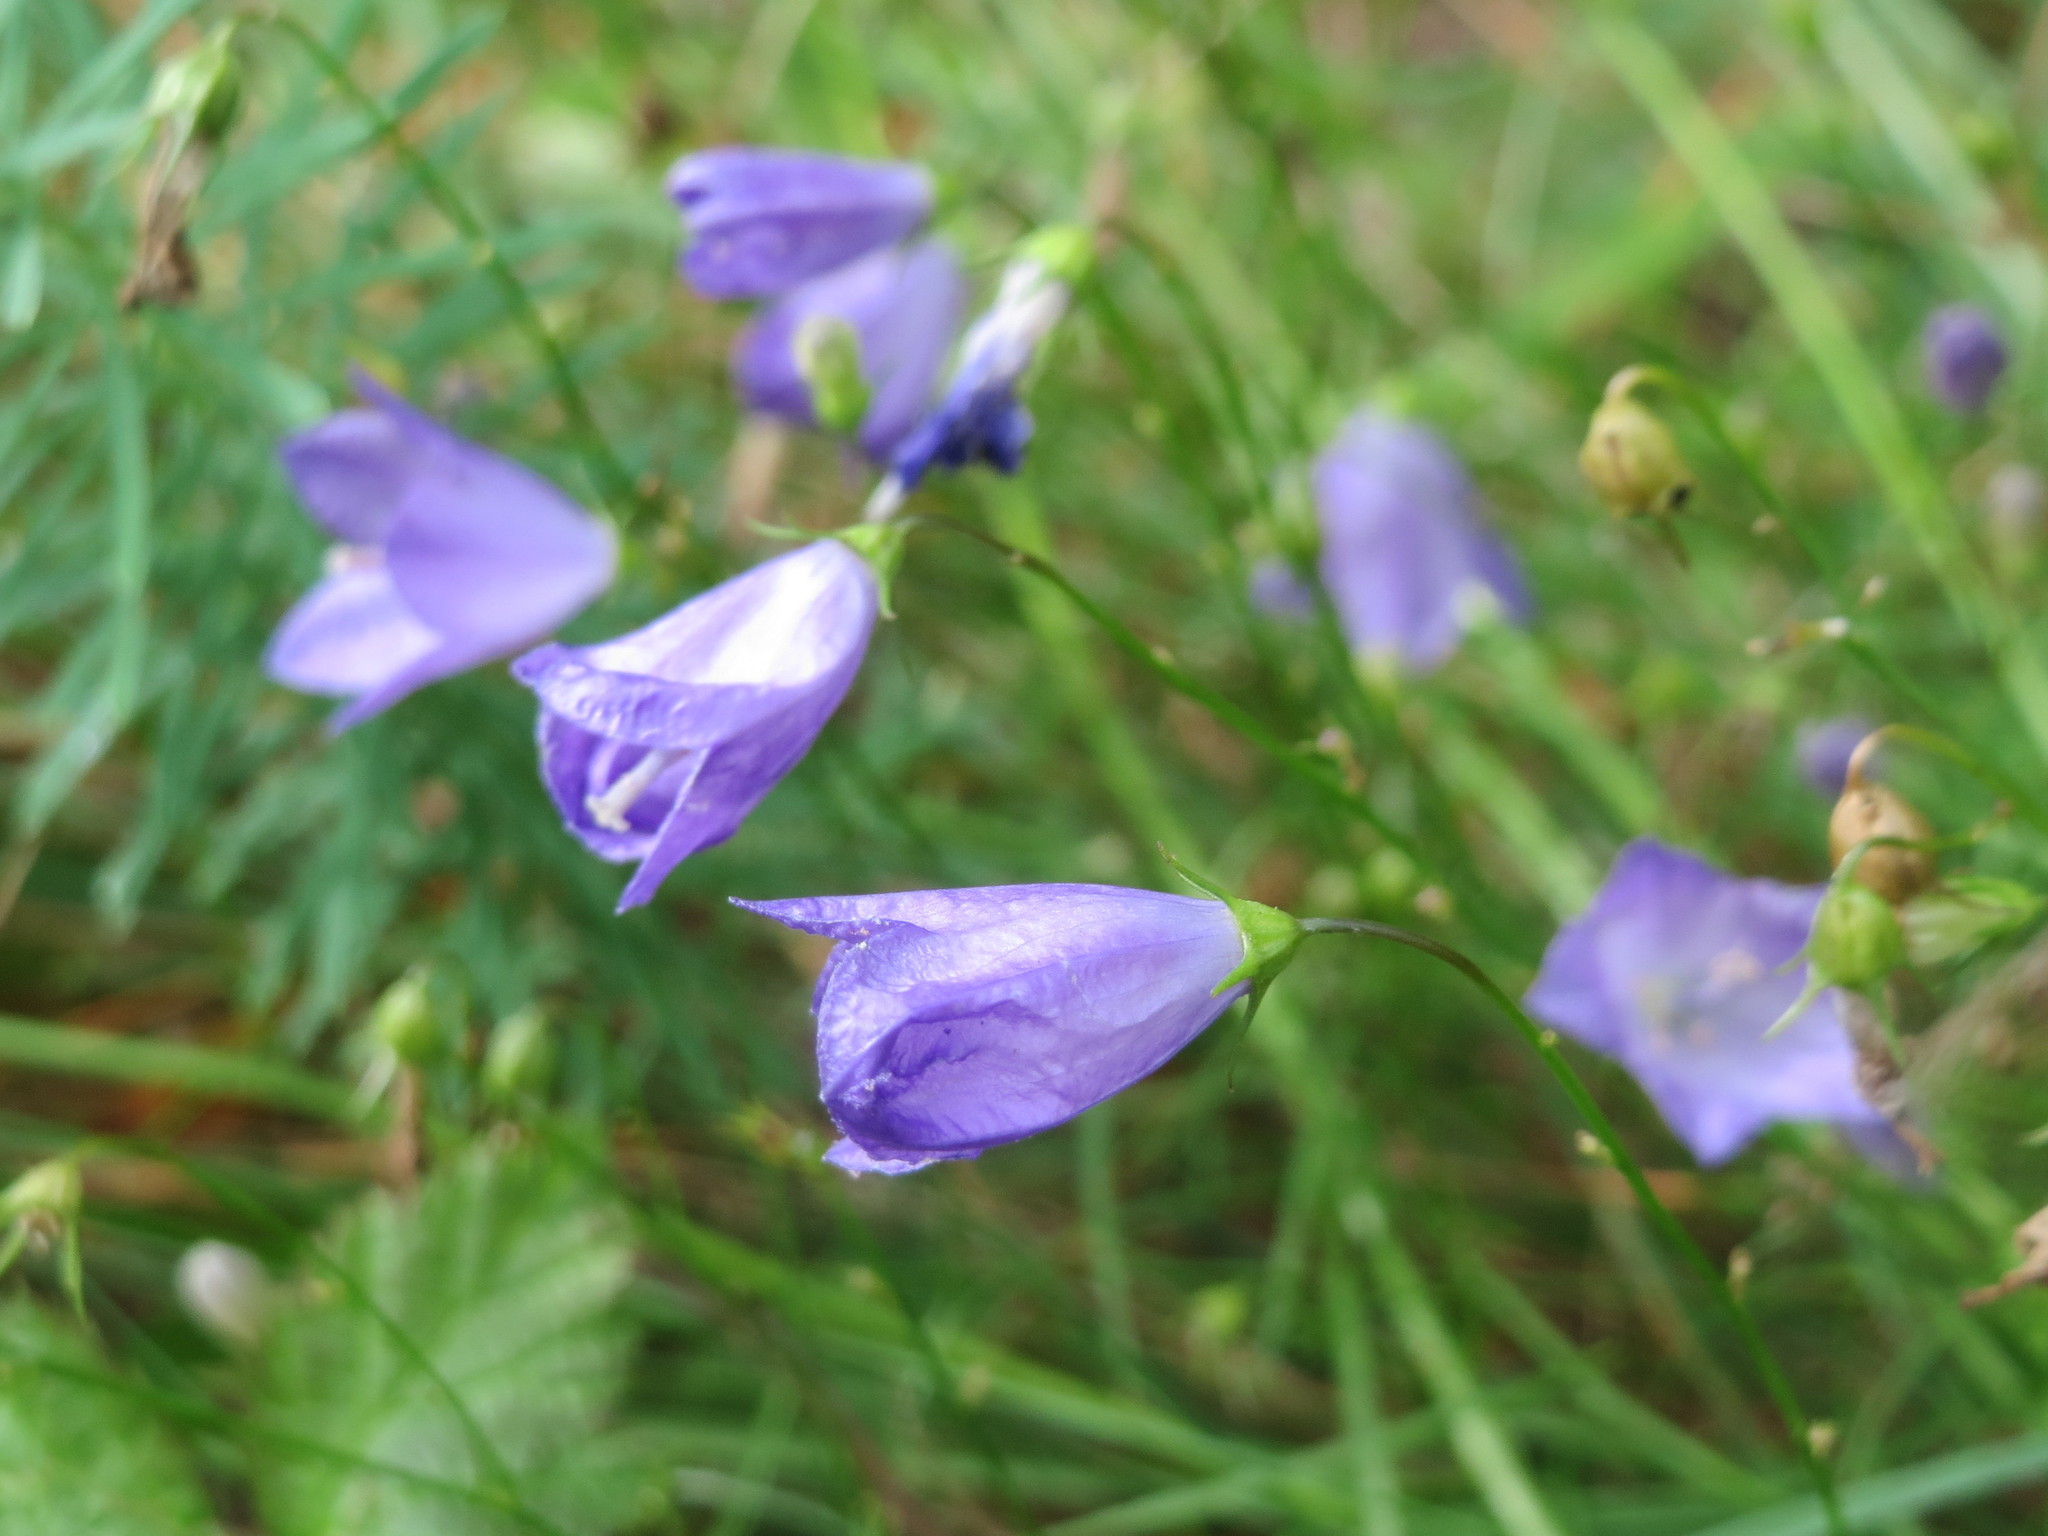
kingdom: Plantae
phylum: Tracheophyta
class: Magnoliopsida
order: Asterales
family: Campanulaceae
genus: Campanula
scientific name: Campanula rotundifolia
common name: Harebell
